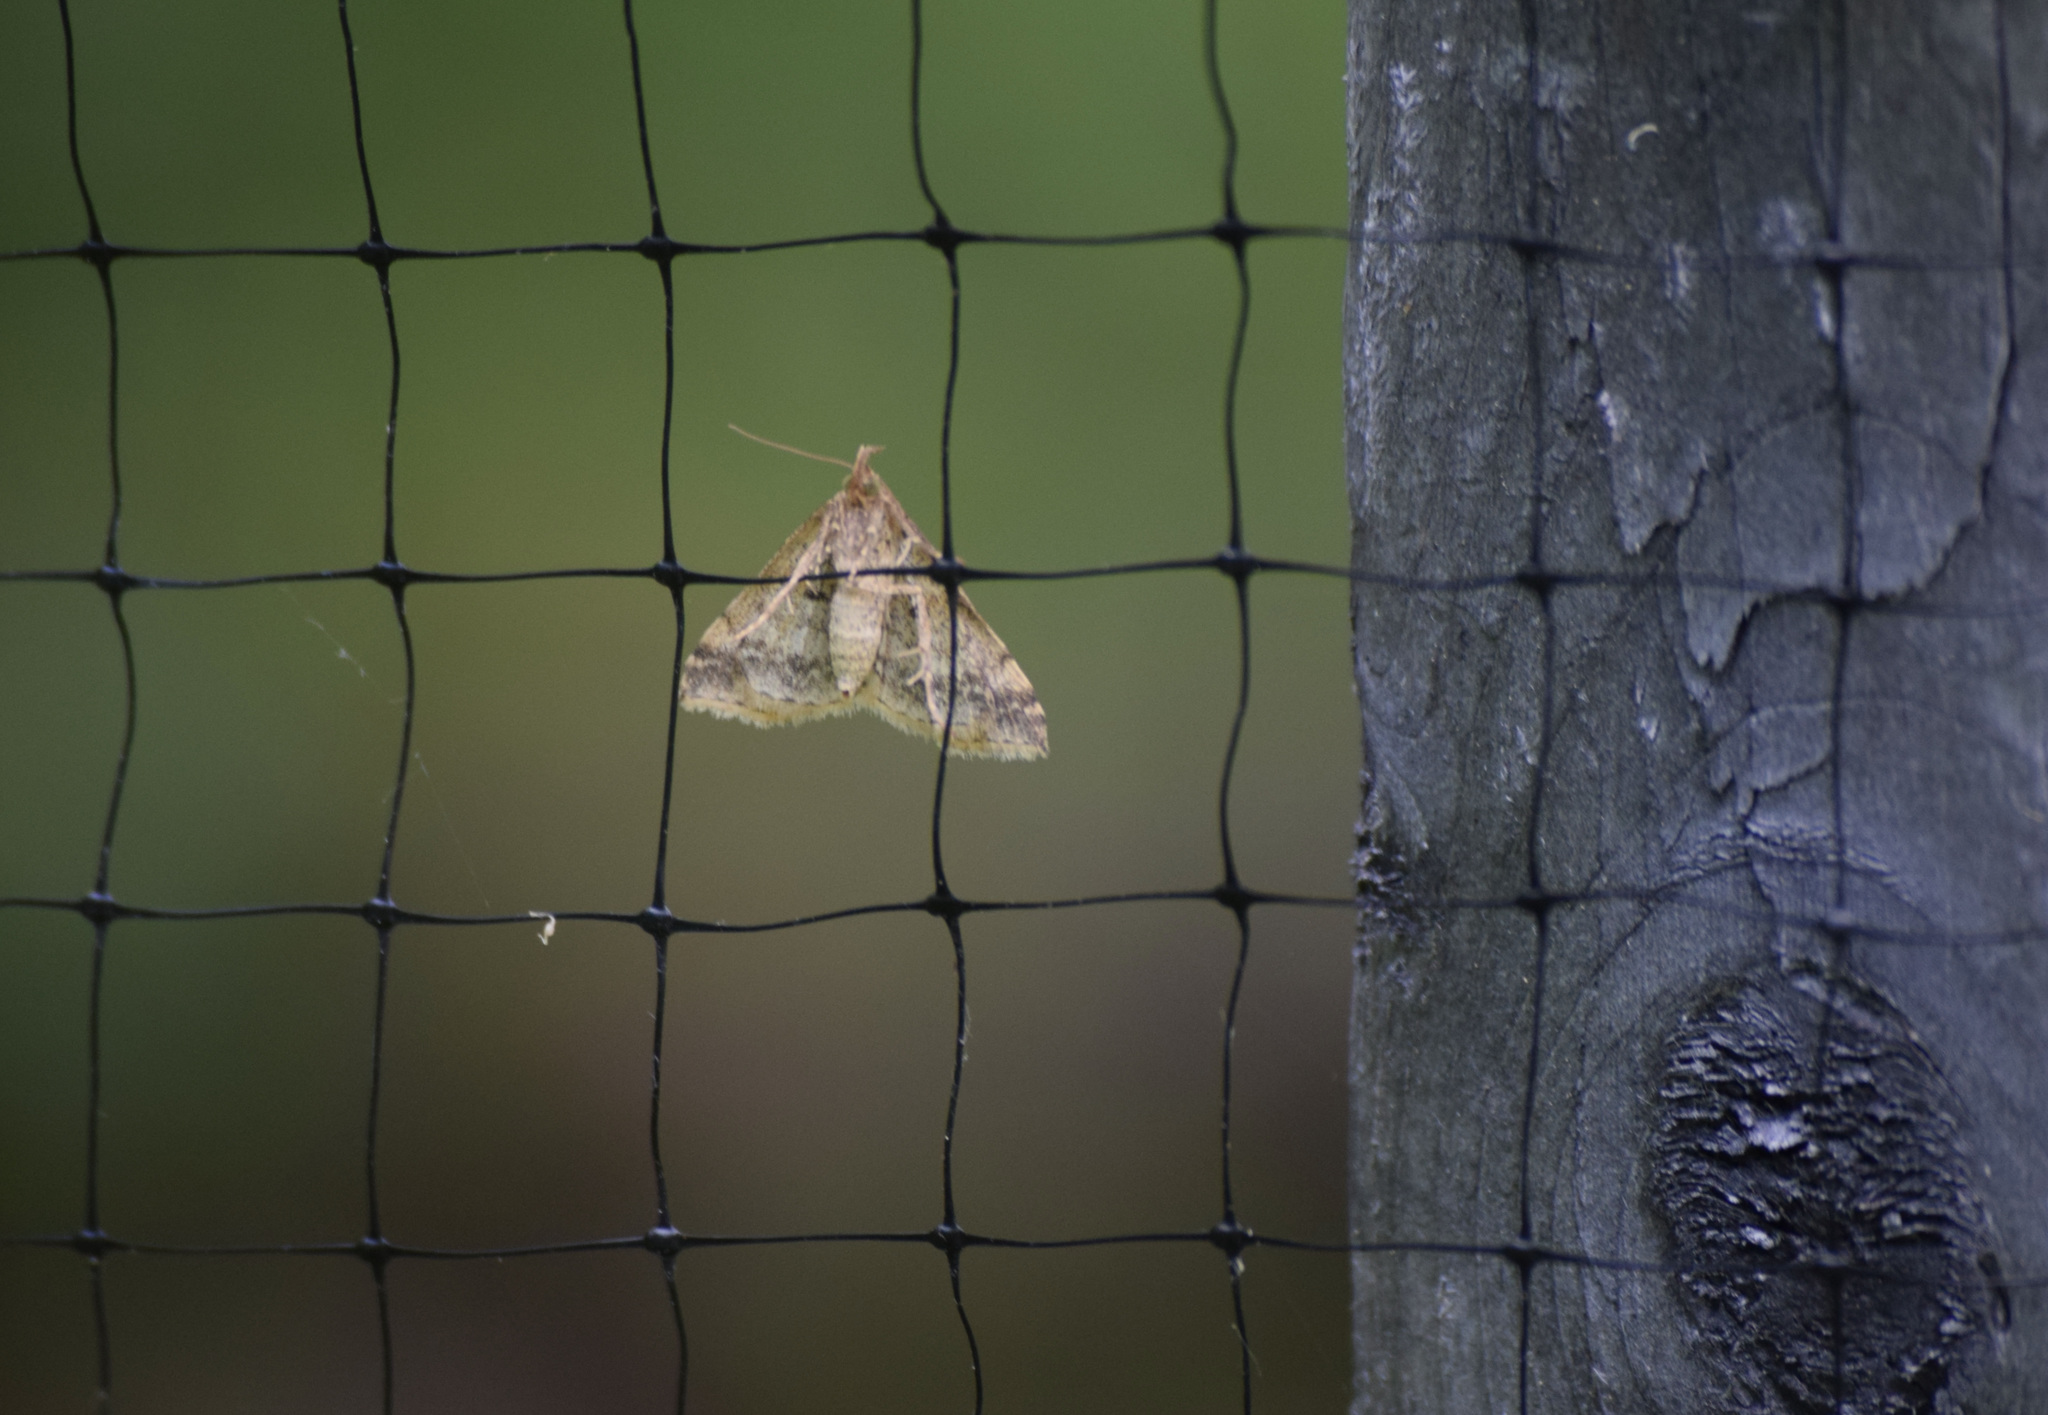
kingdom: Animalia
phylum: Arthropoda
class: Insecta
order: Lepidoptera
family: Erebidae
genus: Phaeolita
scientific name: Phaeolita pyramusalis
